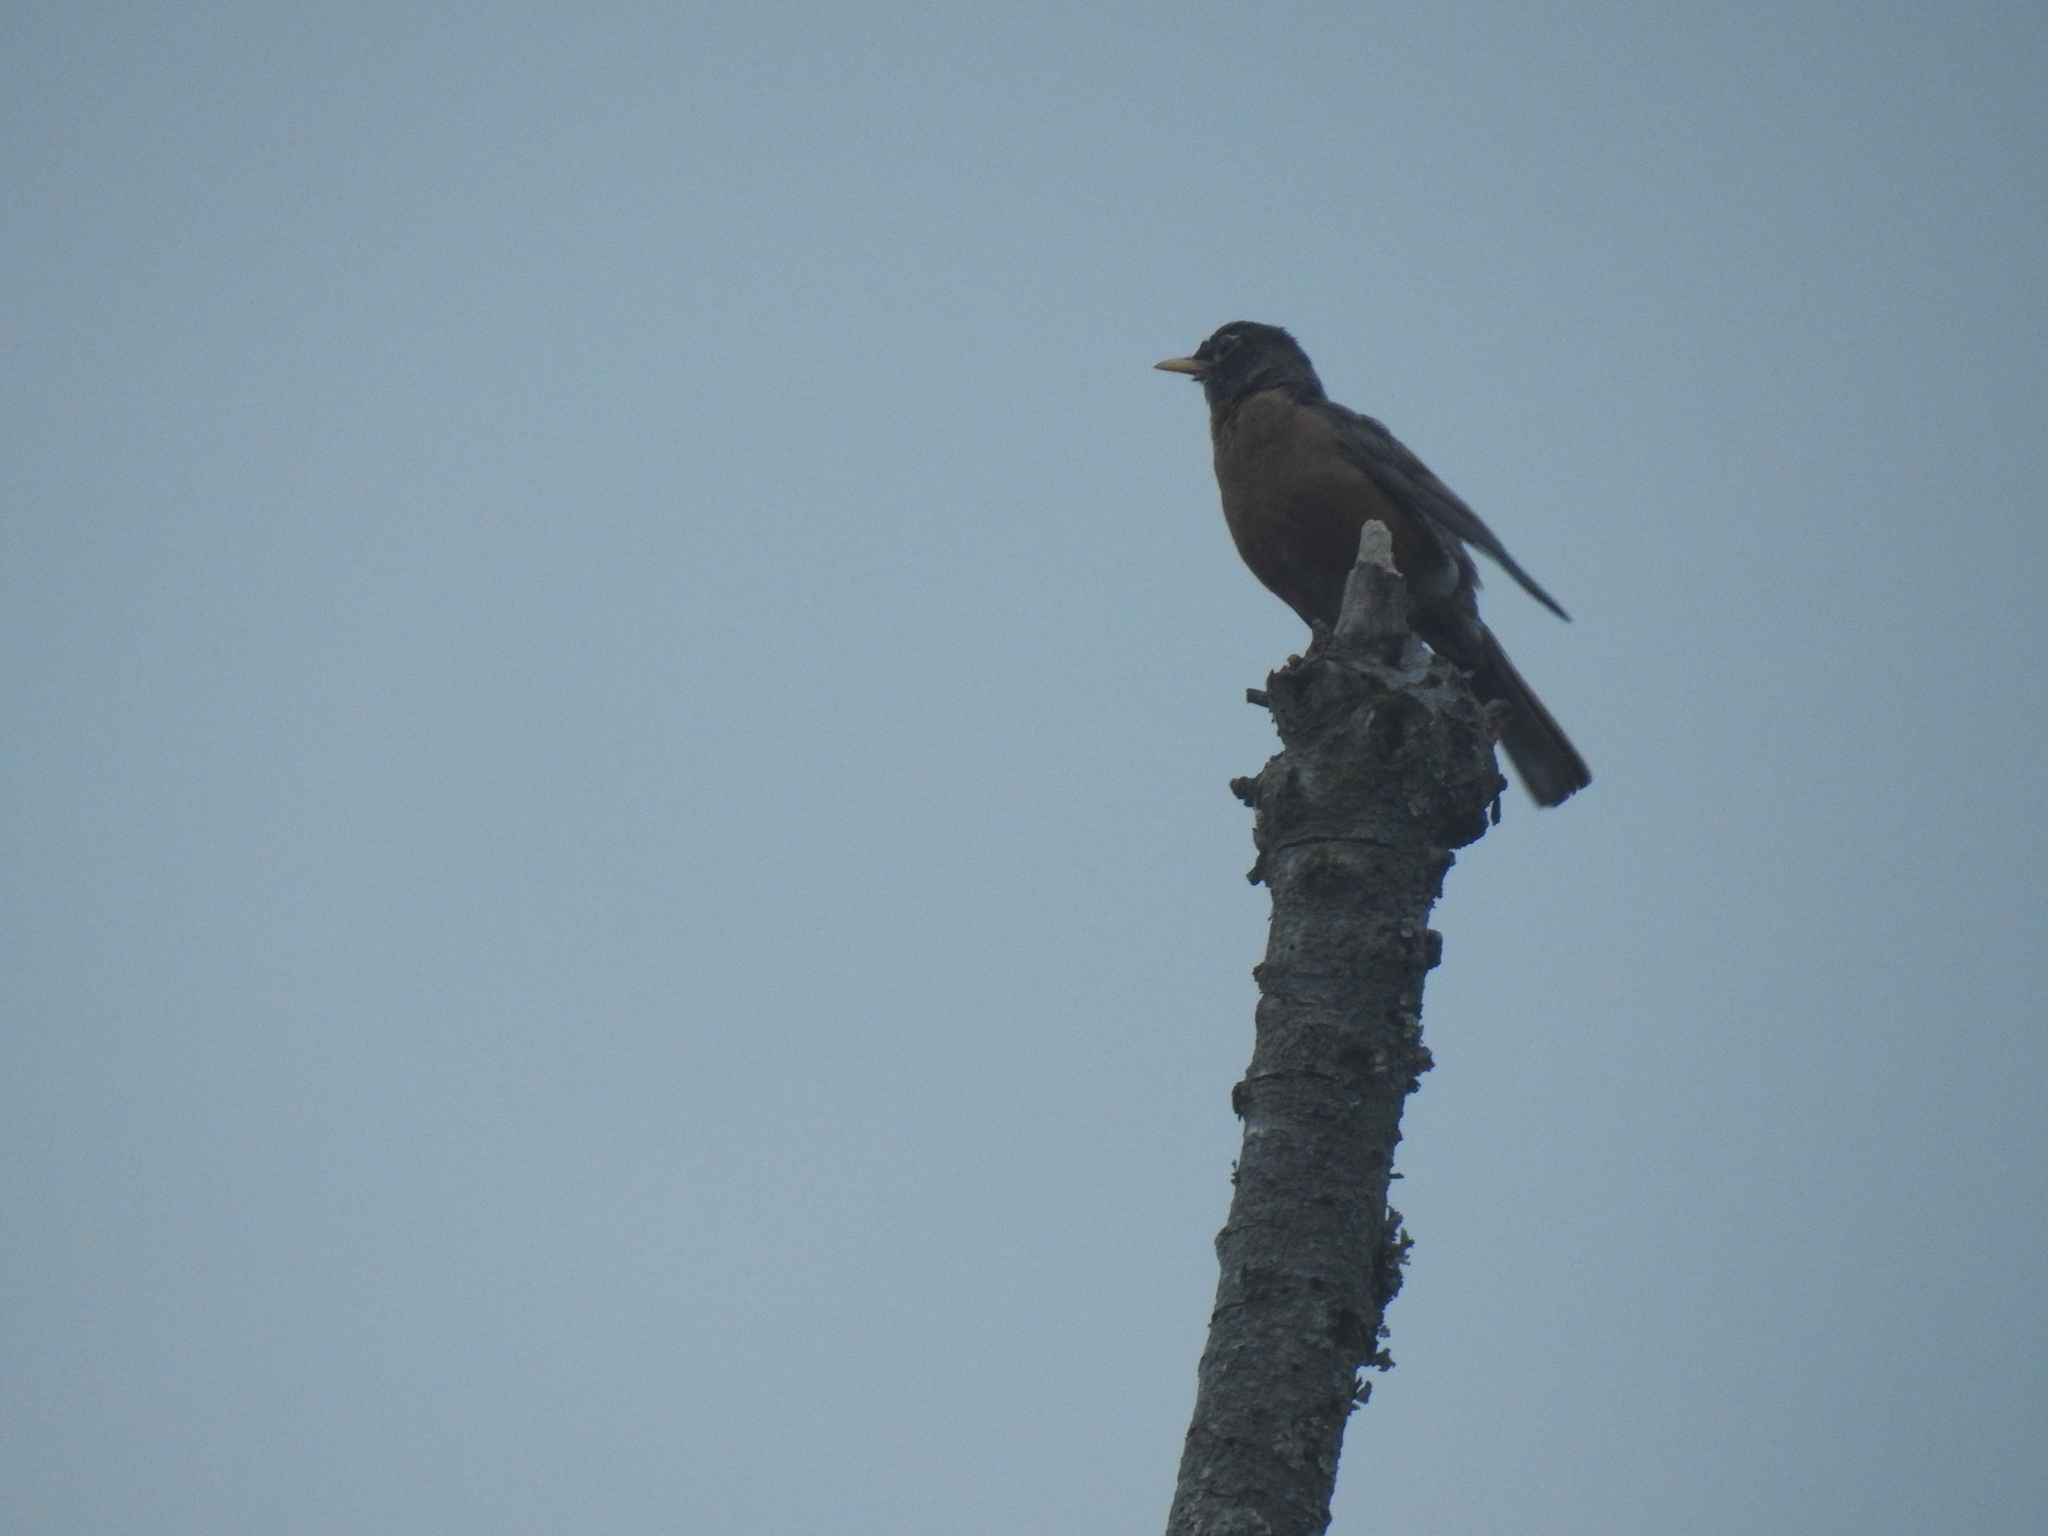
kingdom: Animalia
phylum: Chordata
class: Aves
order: Passeriformes
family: Turdidae
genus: Turdus
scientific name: Turdus migratorius
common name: American robin
